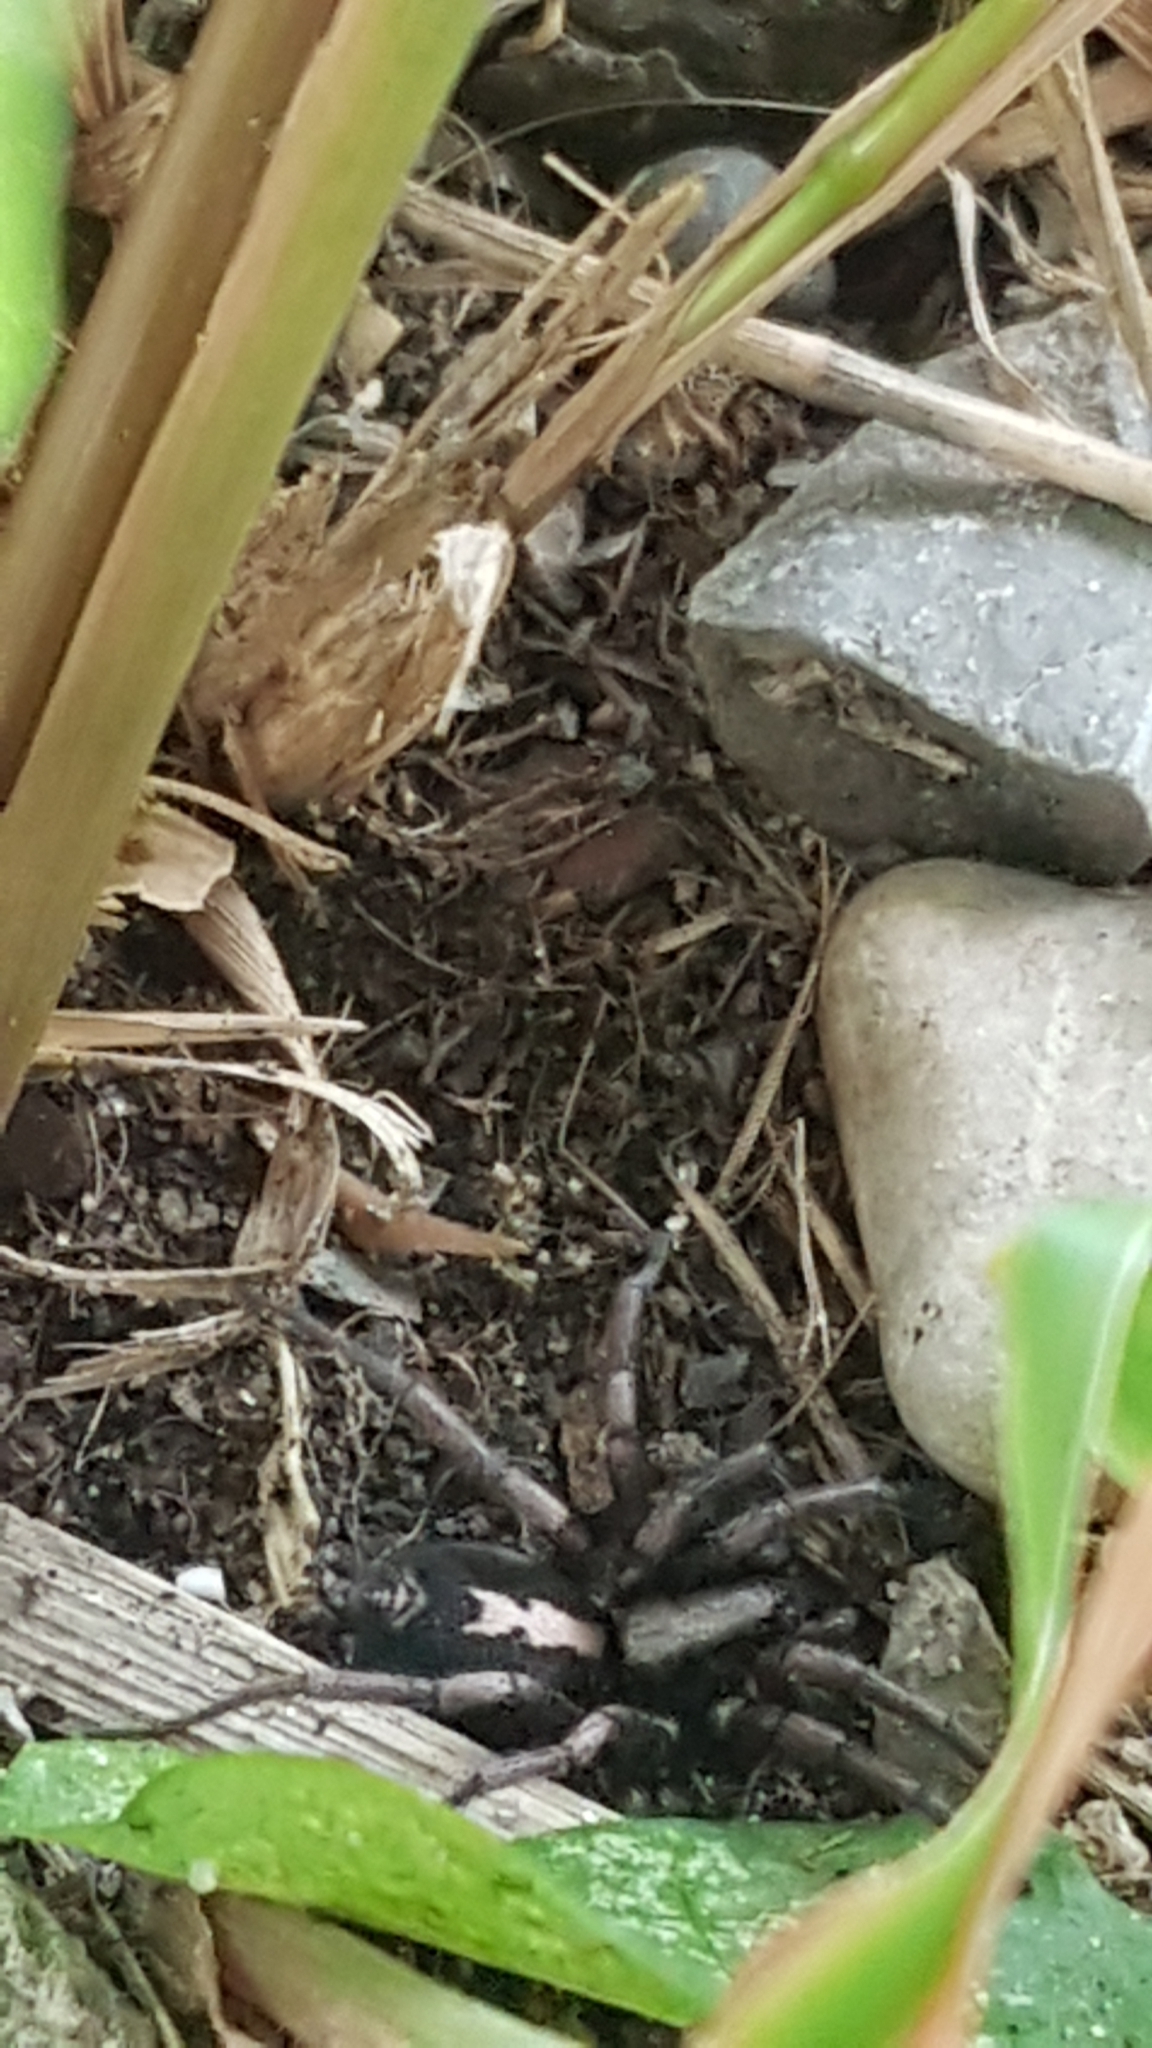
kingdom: Animalia
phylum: Arthropoda
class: Arachnida
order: Araneae
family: Gnaphosidae
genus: Herpyllus
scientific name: Herpyllus ecclesiasticus
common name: Eastern parson spider
